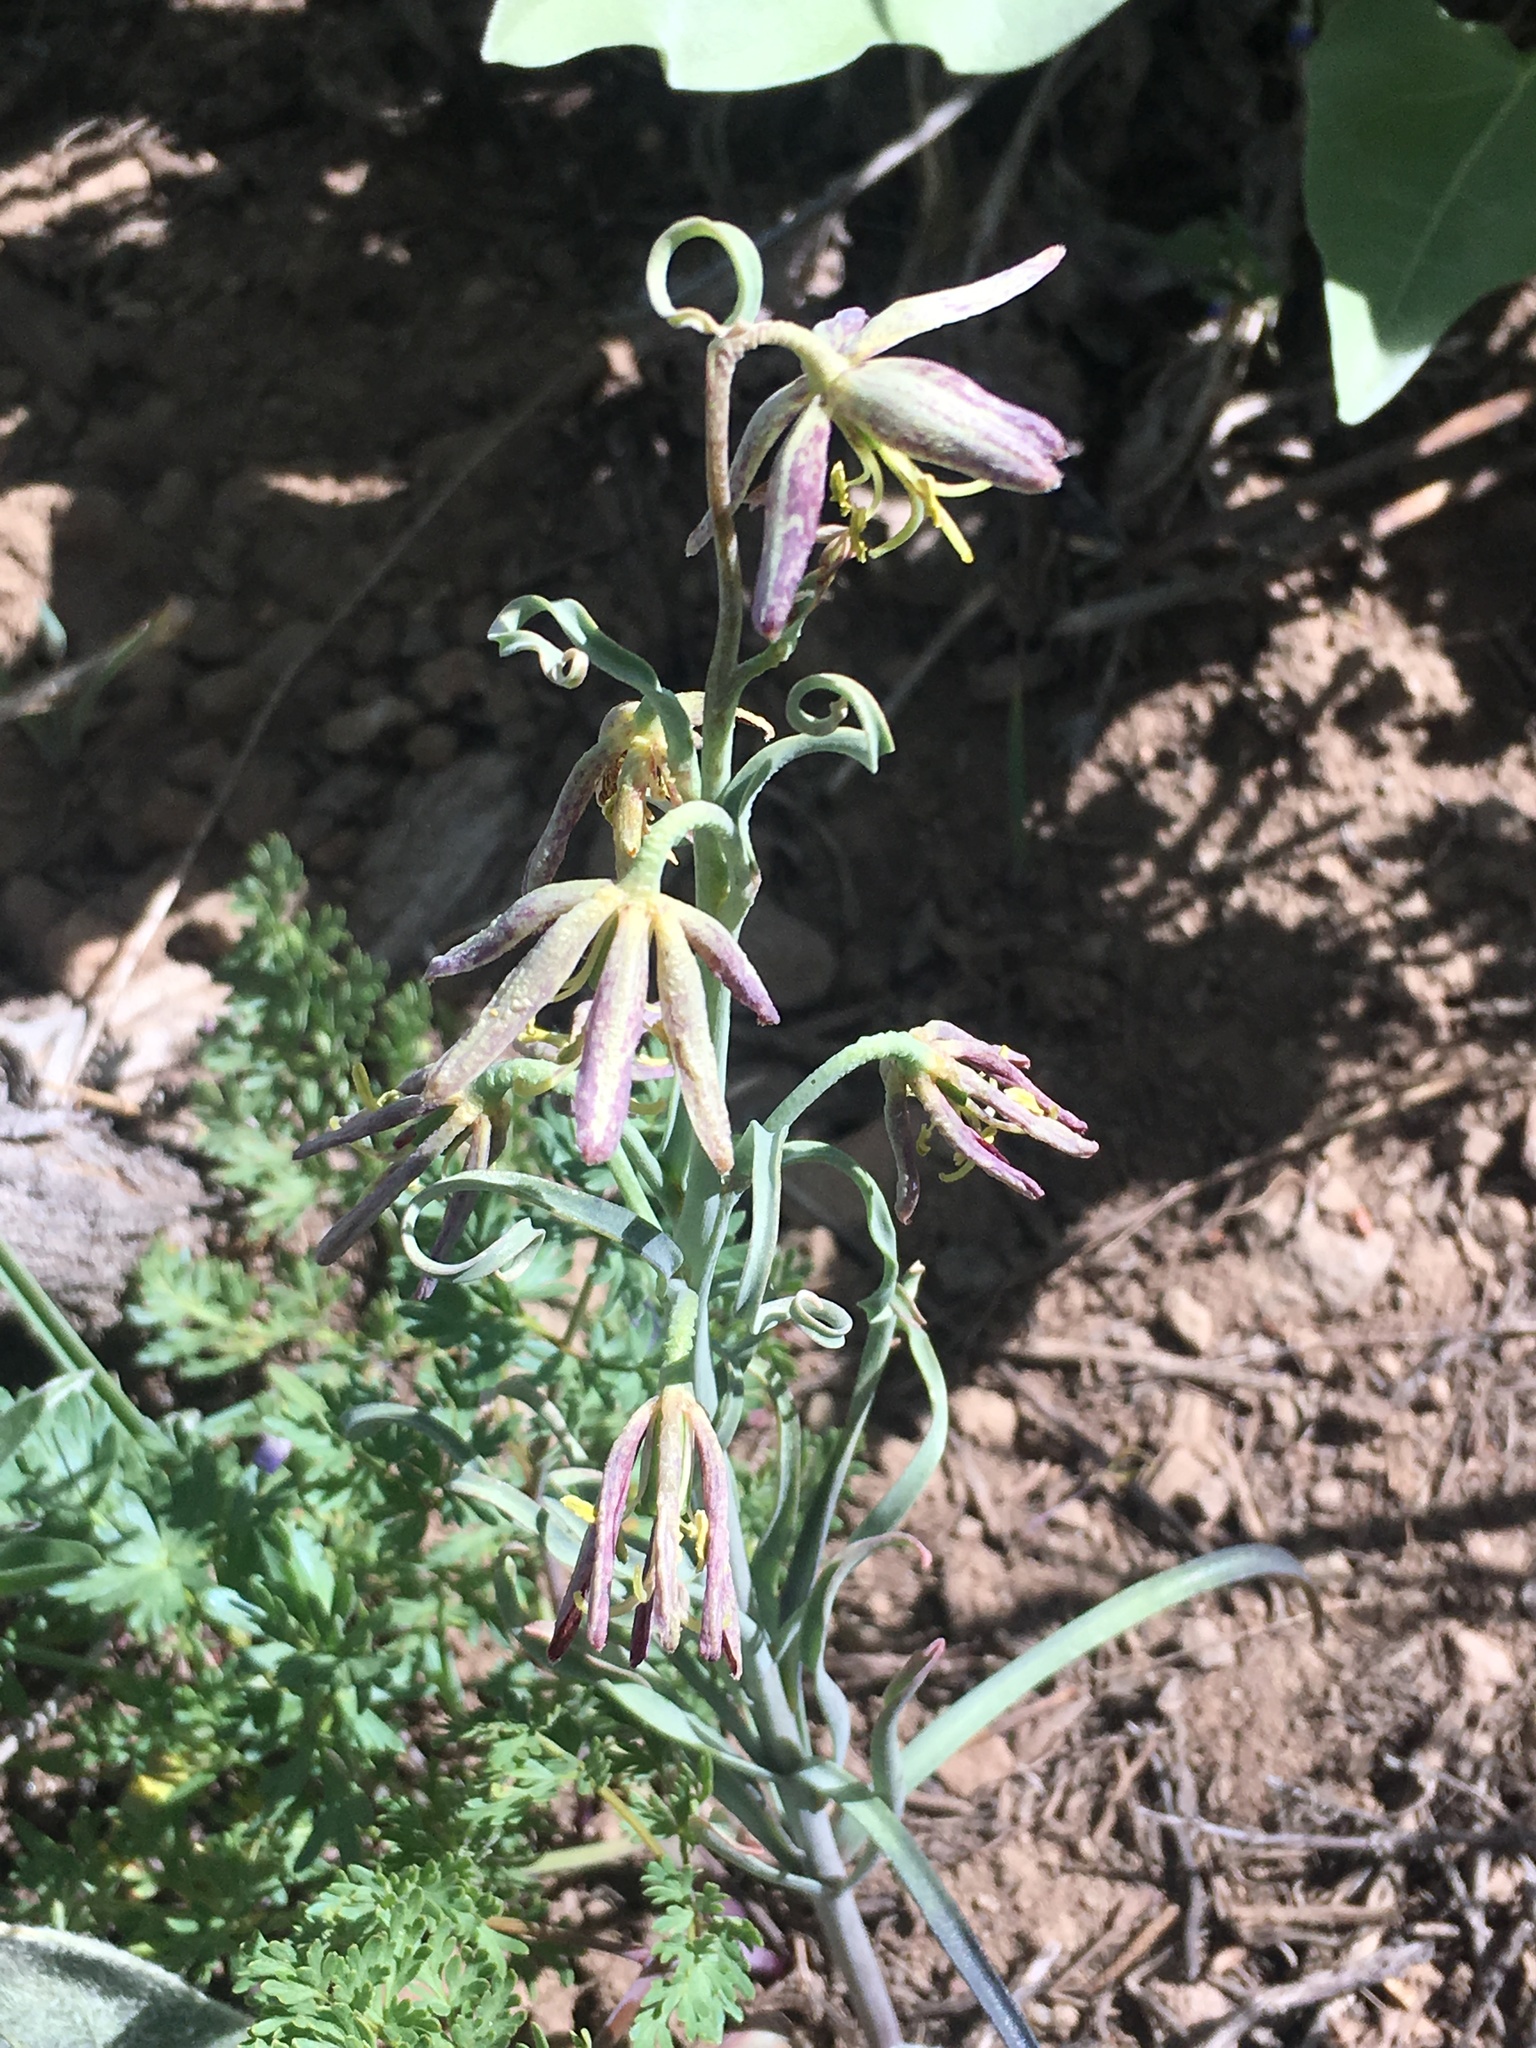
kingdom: Plantae
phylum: Tracheophyta
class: Liliopsida
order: Liliales
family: Liliaceae
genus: Fritillaria
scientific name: Fritillaria atropurpurea
